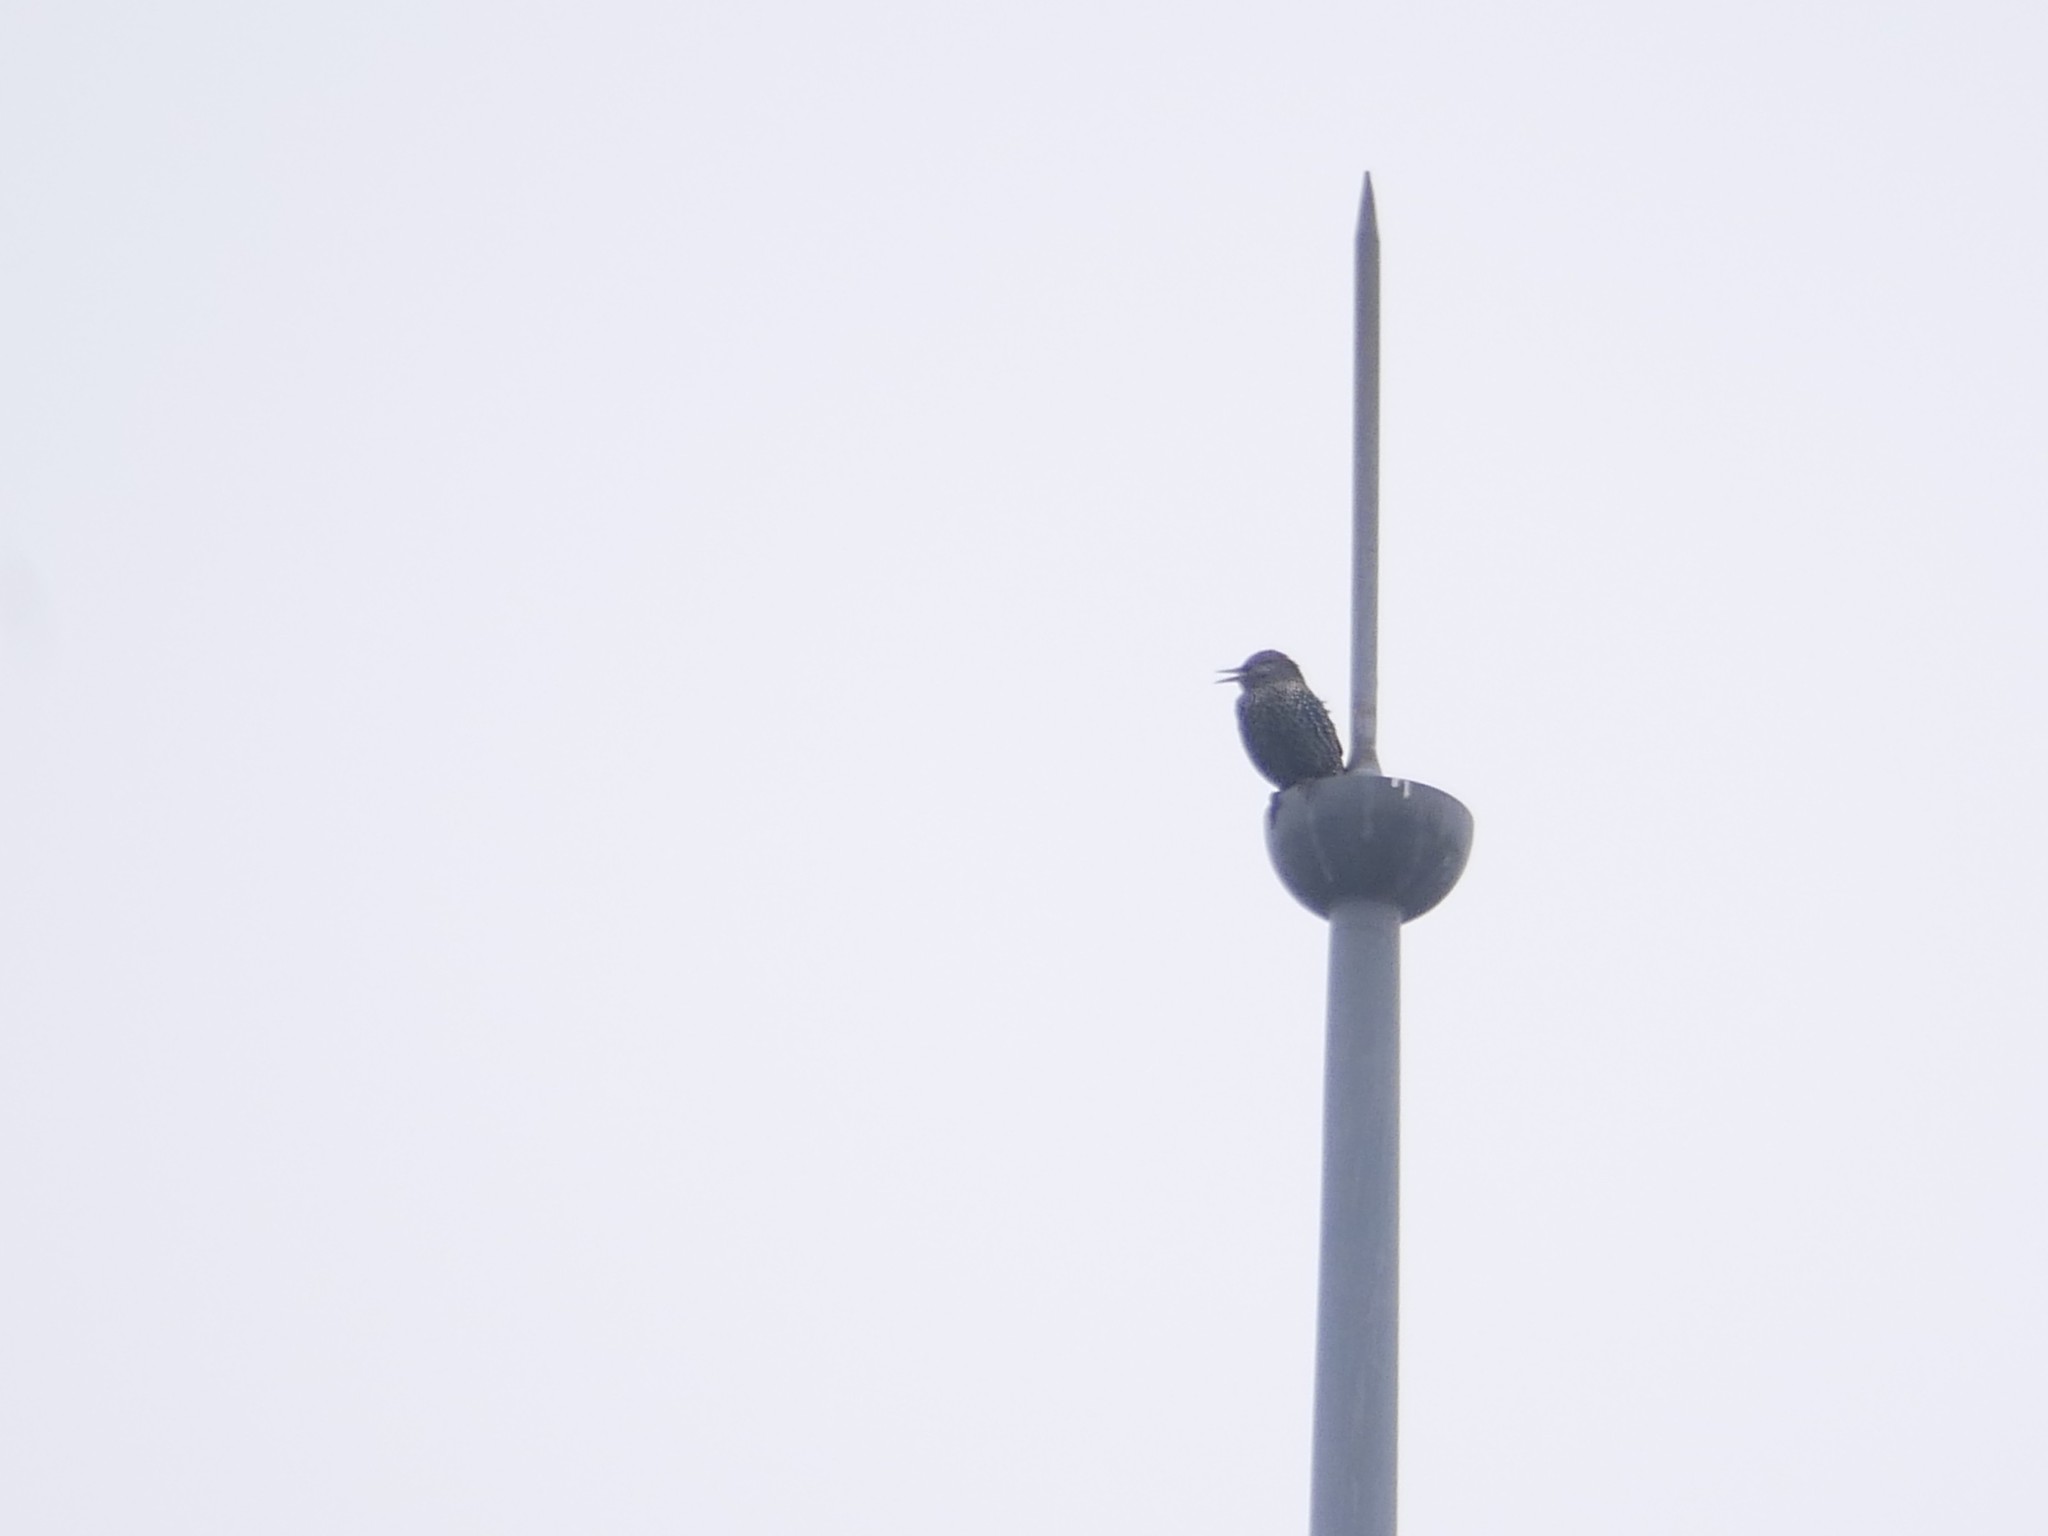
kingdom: Animalia
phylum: Chordata
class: Aves
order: Passeriformes
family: Sturnidae
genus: Sturnus
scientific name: Sturnus vulgaris
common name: Common starling
